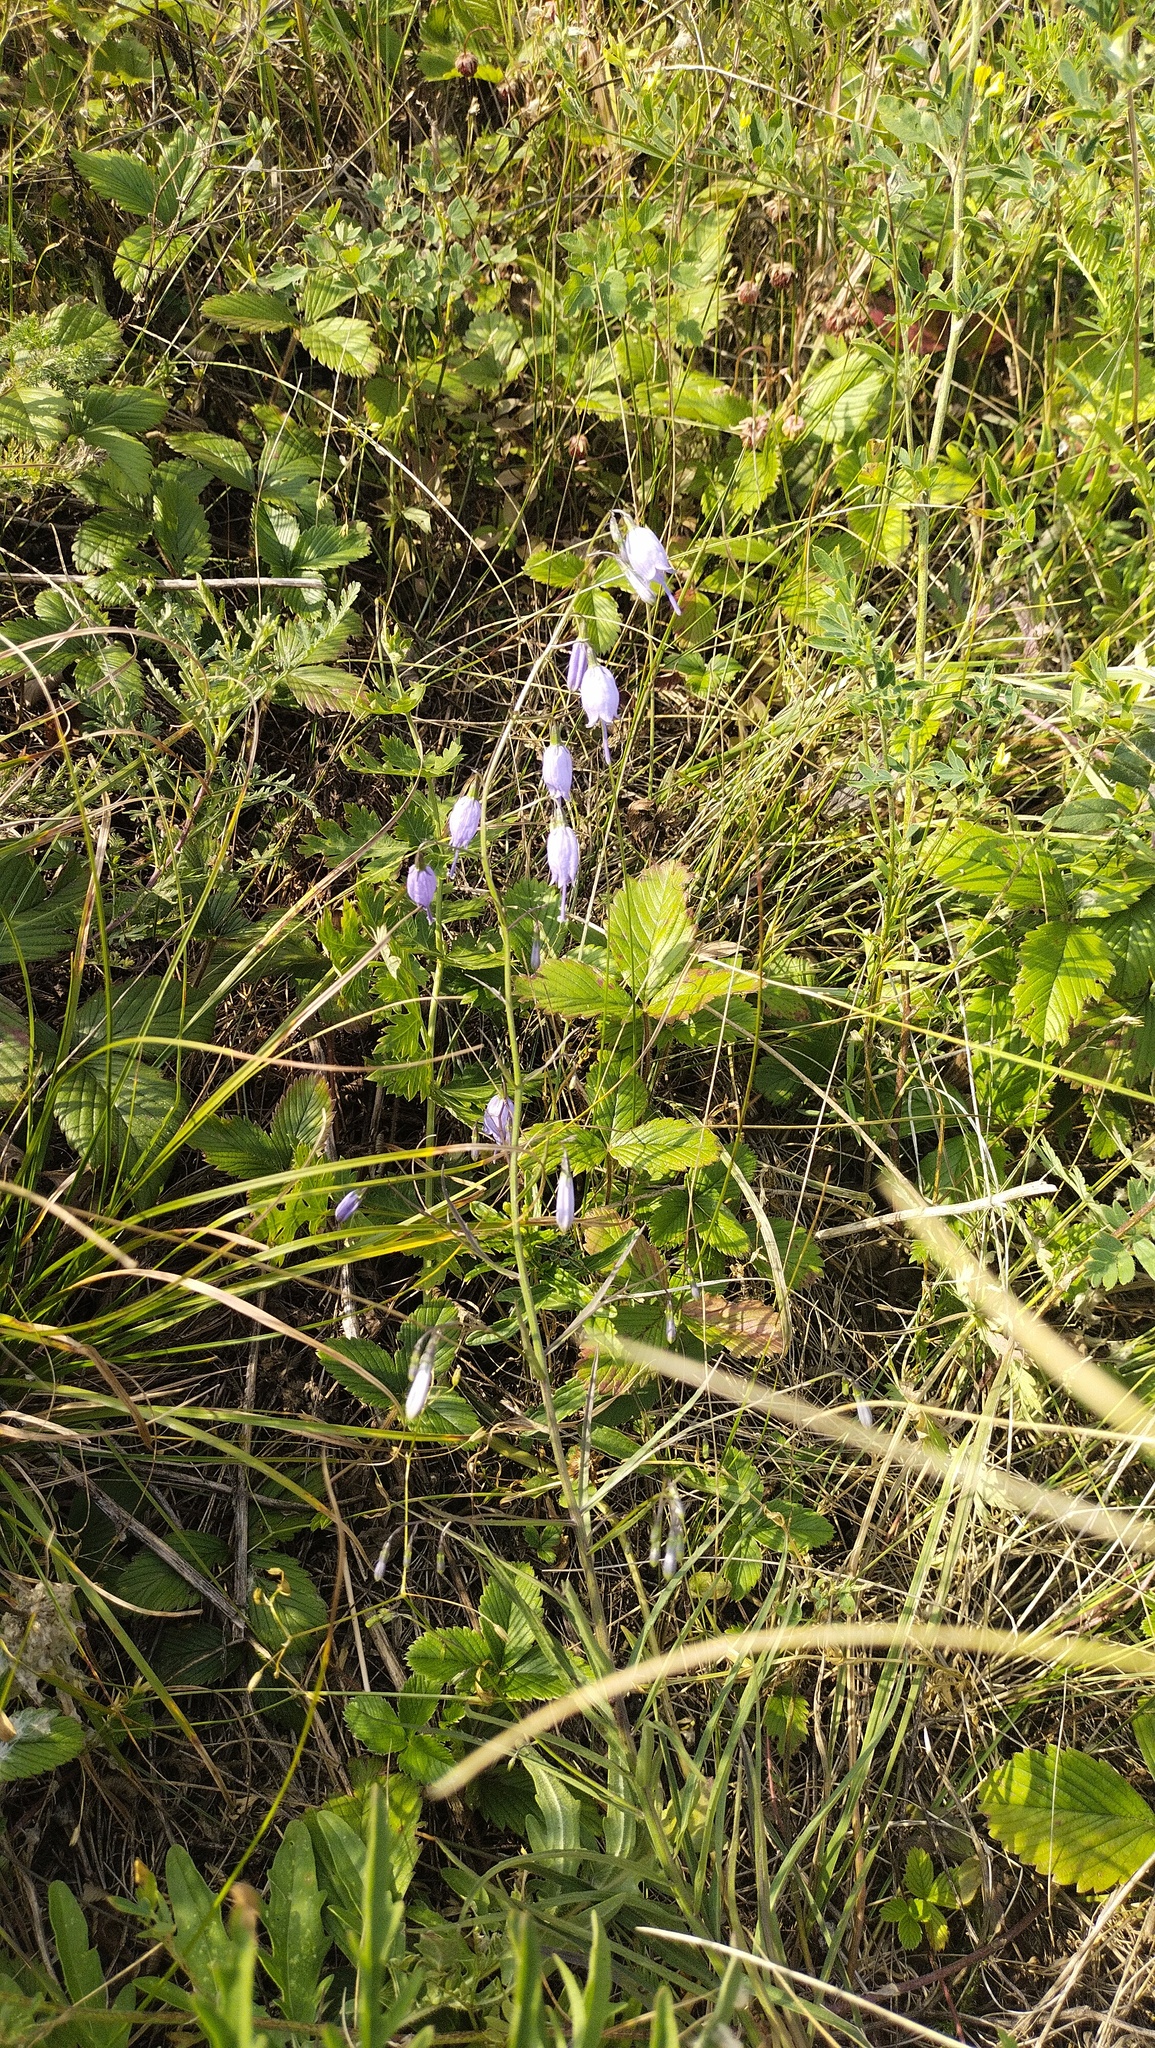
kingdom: Plantae
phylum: Tracheophyta
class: Magnoliopsida
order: Asterales
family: Campanulaceae
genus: Adenophora
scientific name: Adenophora stenanthina
